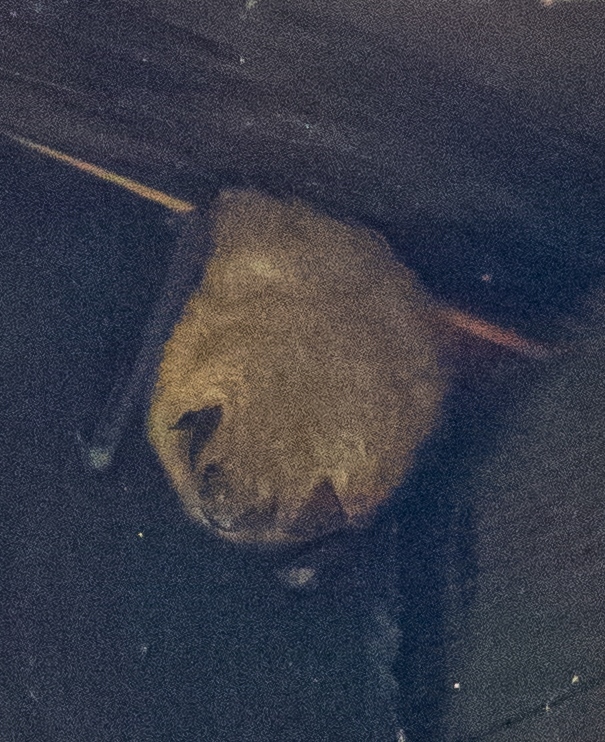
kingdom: Animalia
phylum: Chordata
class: Mammalia
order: Chiroptera
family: Vespertilionidae
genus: Myotis
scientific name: Myotis emarginatus
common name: Geoffroy's bat
